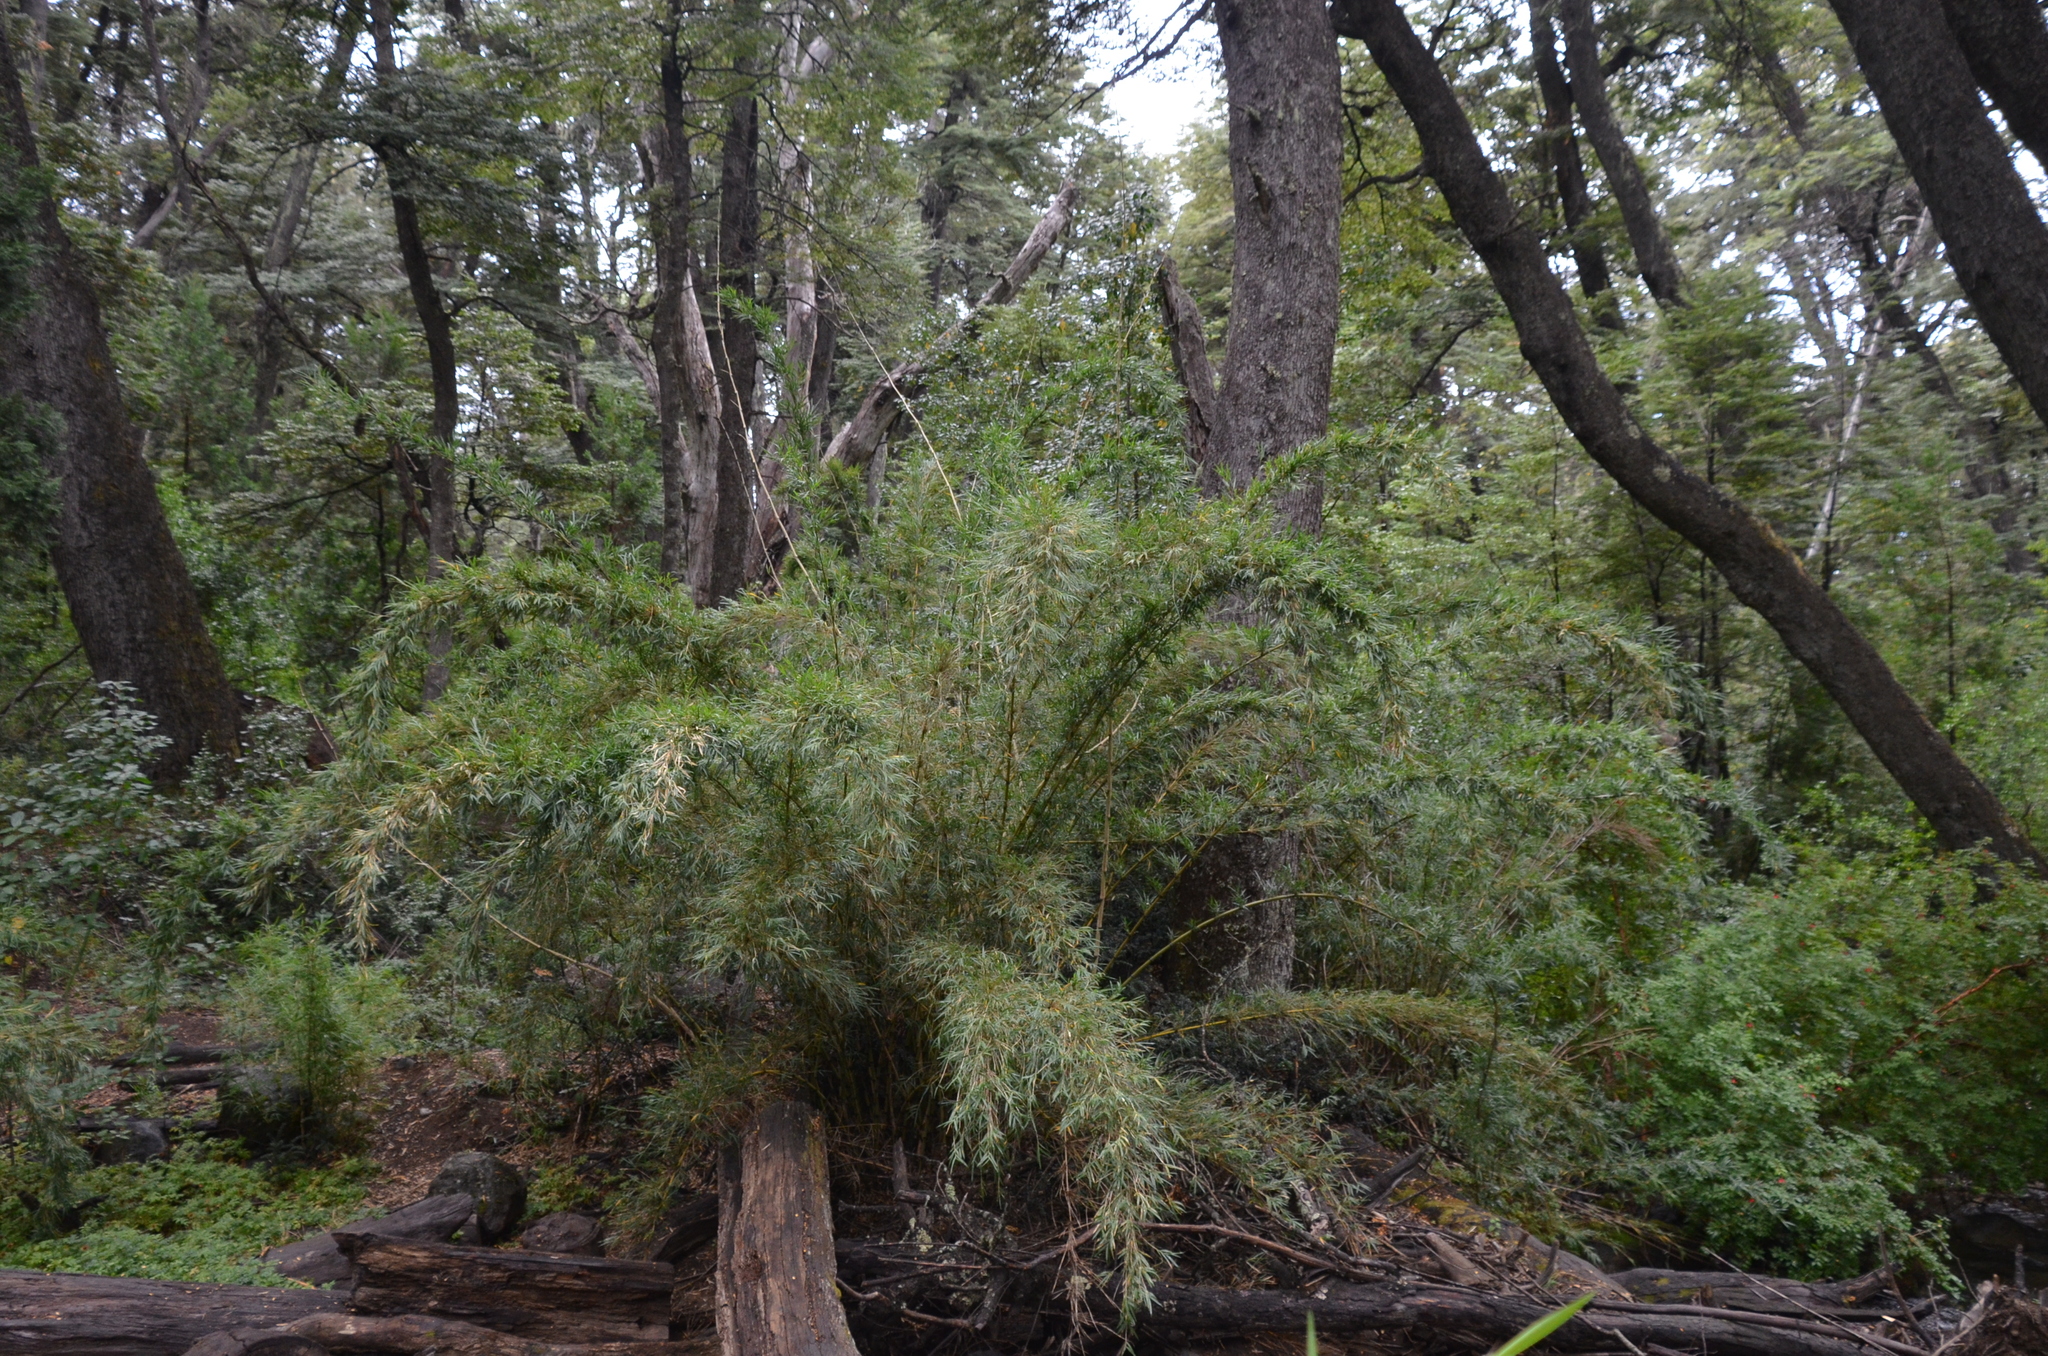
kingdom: Plantae
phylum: Tracheophyta
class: Liliopsida
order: Poales
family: Poaceae
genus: Chusquea
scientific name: Chusquea culeou
